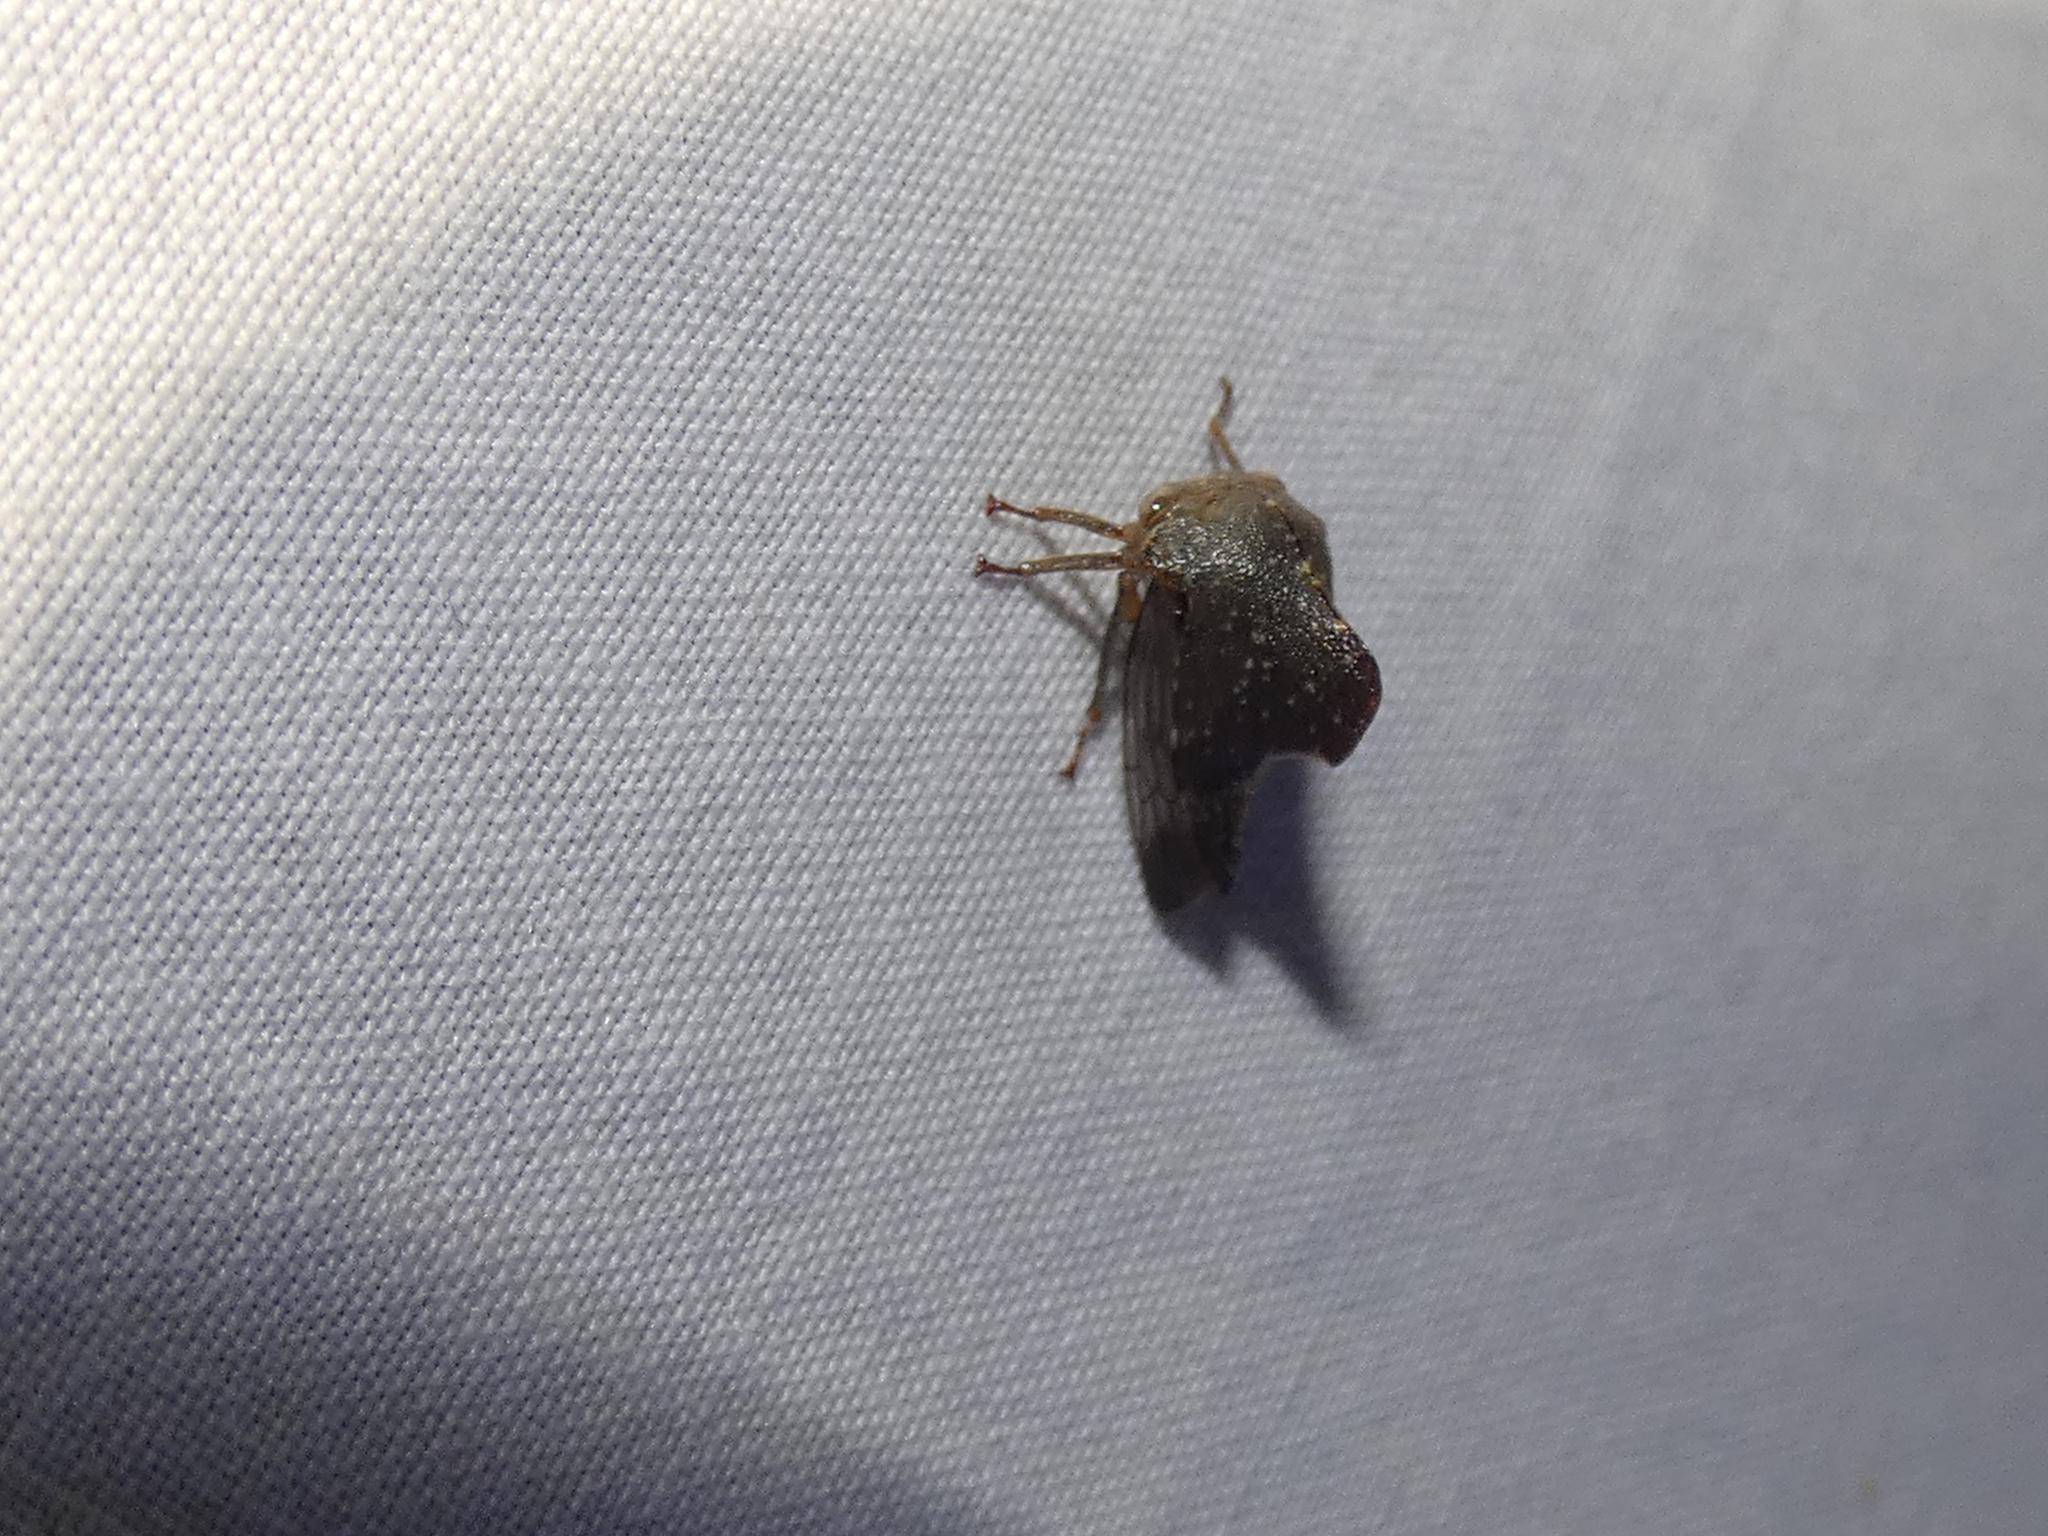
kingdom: Animalia
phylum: Arthropoda
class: Insecta
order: Hemiptera
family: Membracidae
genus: Telamona
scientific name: Telamona monticola
